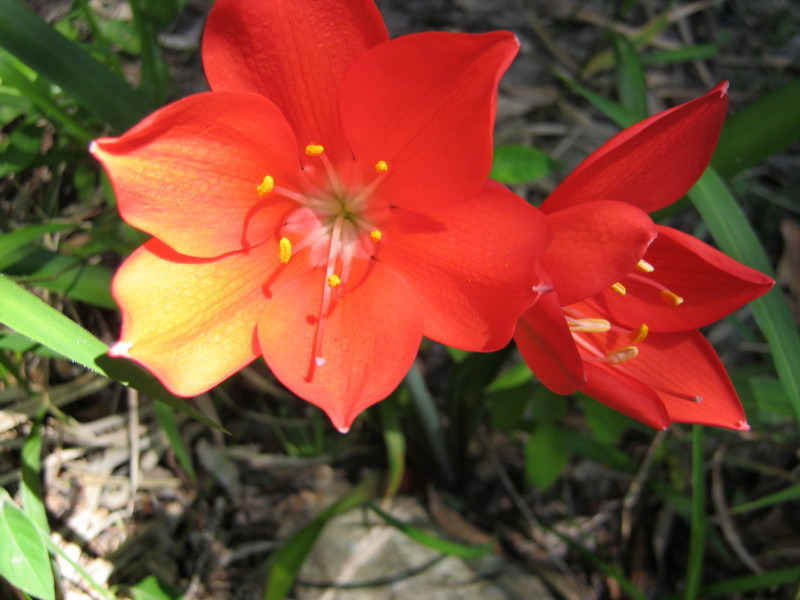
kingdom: Plantae
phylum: Tracheophyta
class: Liliopsida
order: Asparagales
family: Amaryllidaceae
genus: Cyrtanthus
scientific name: Cyrtanthus elatus
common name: Scarborough-lily
